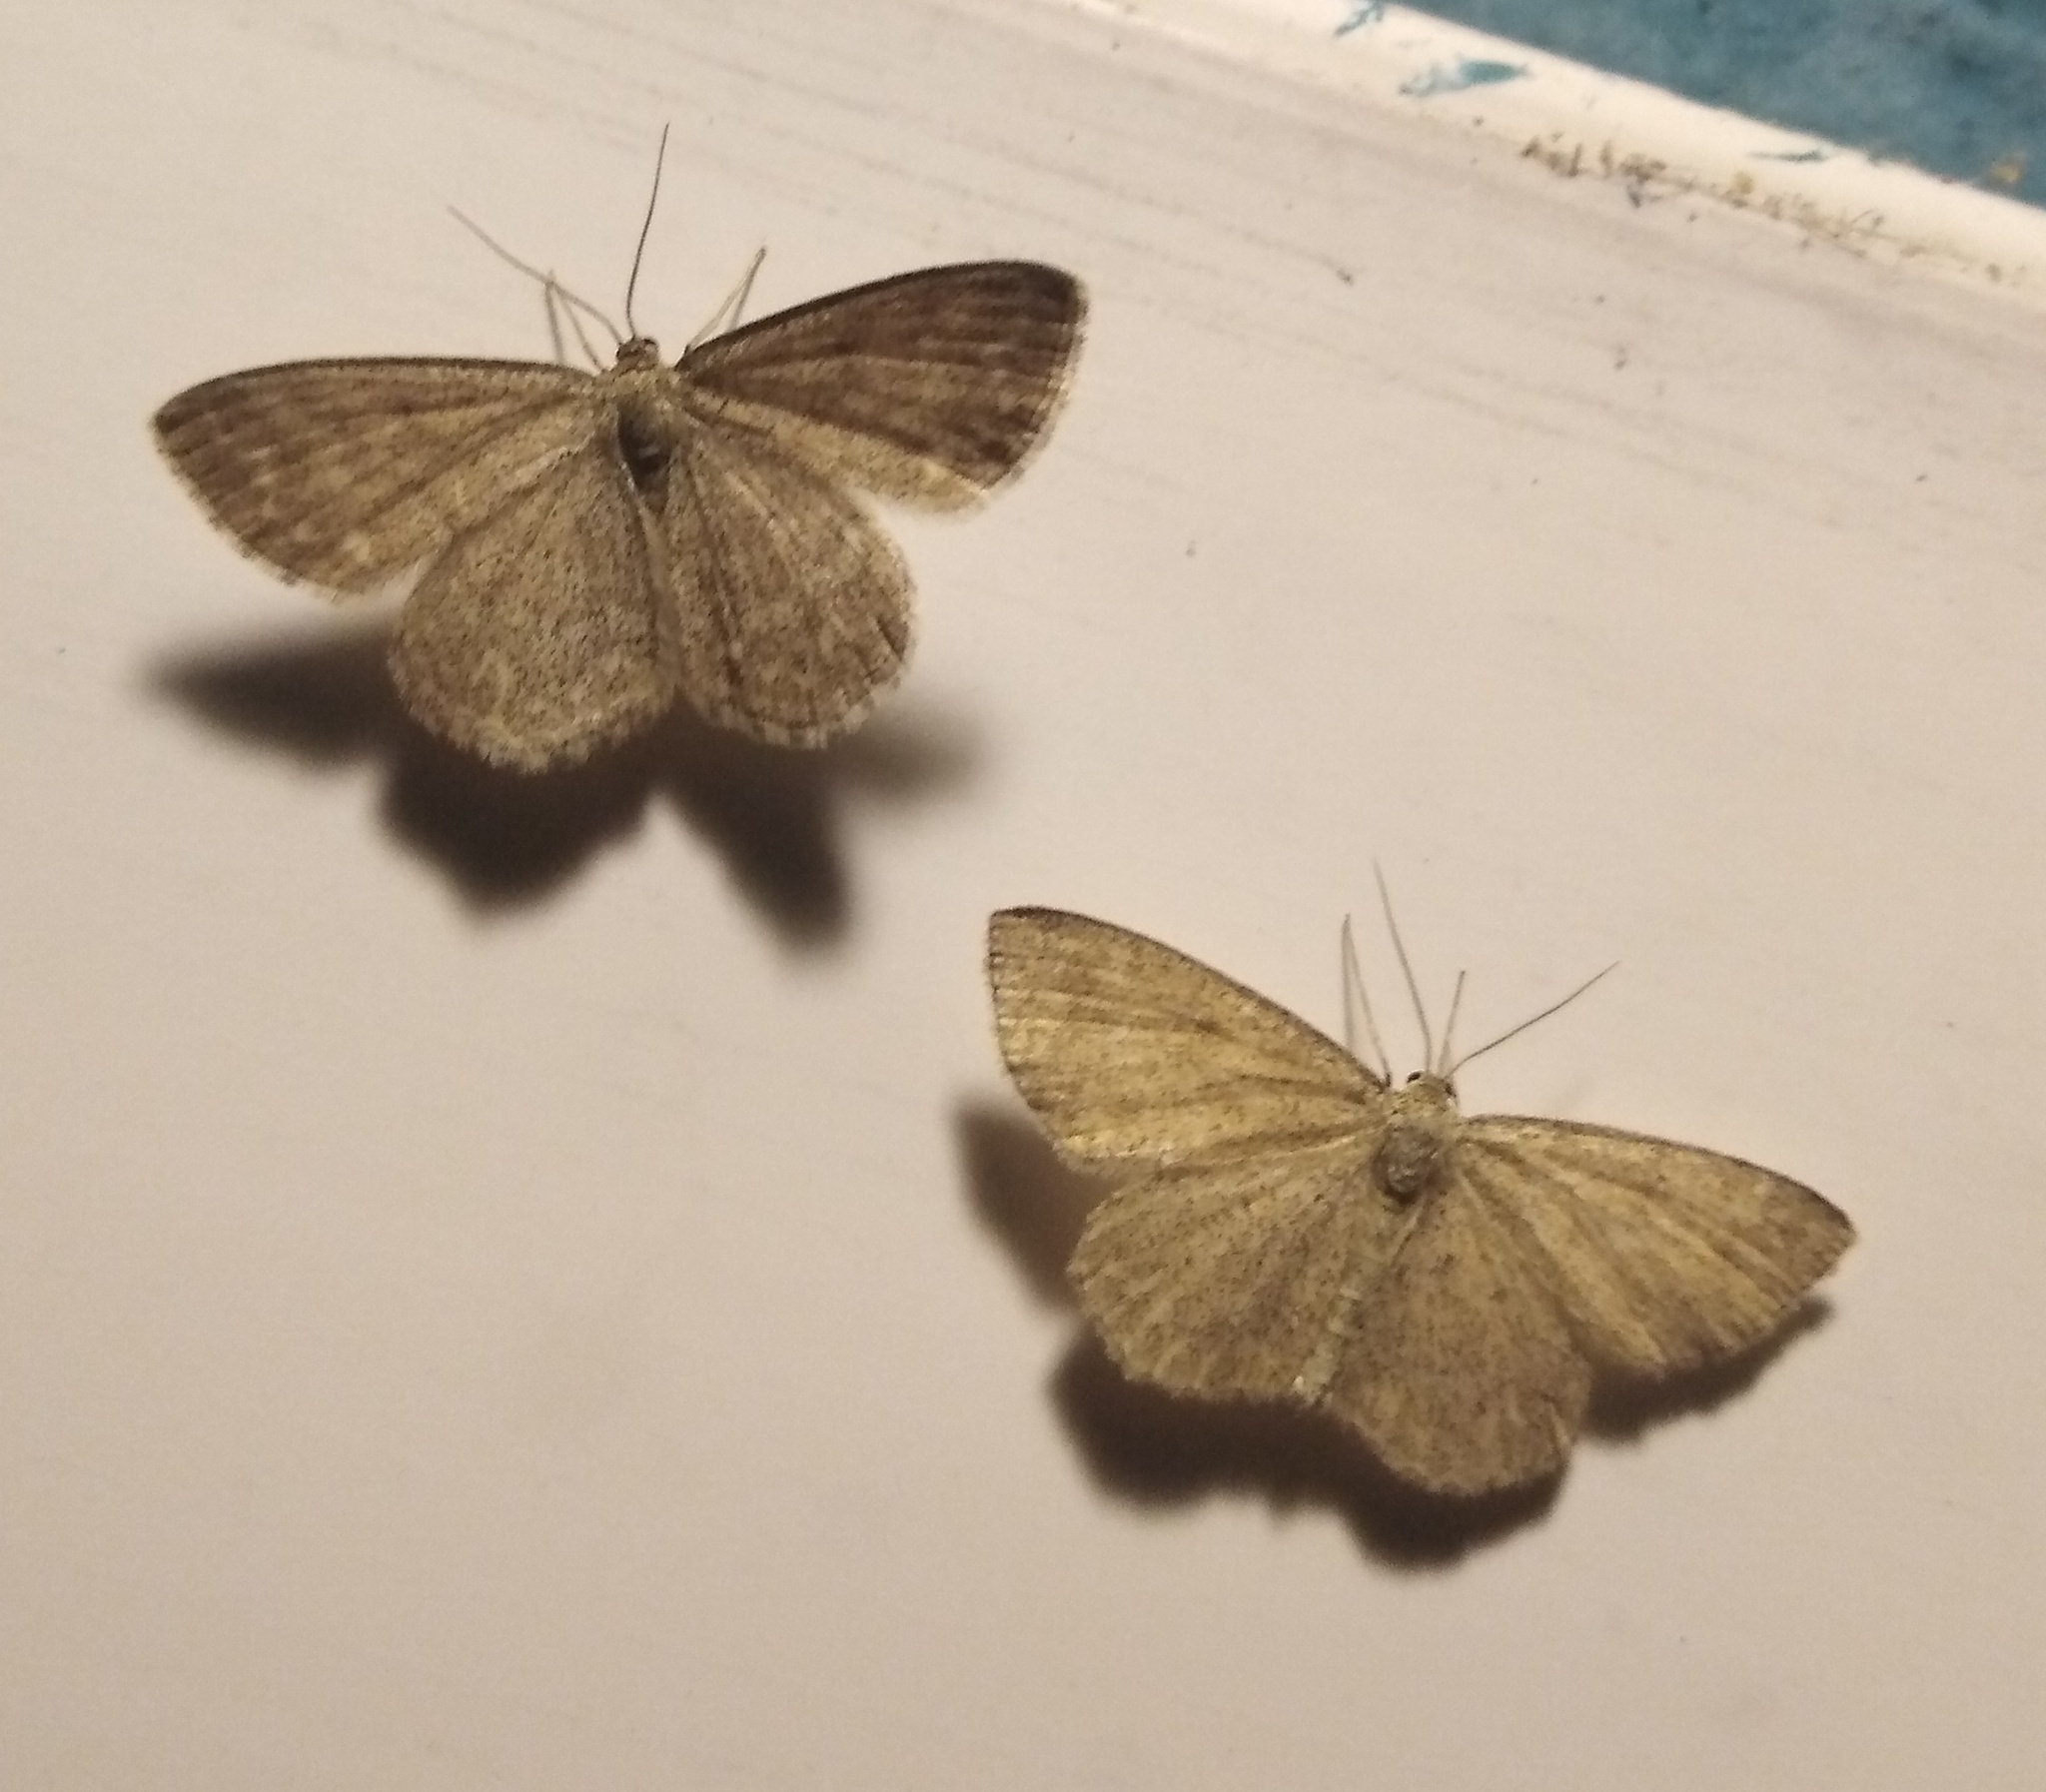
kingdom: Animalia
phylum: Arthropoda
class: Insecta
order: Lepidoptera
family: Geometridae
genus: Scopula
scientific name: Scopula immorata
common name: Lewes wave
